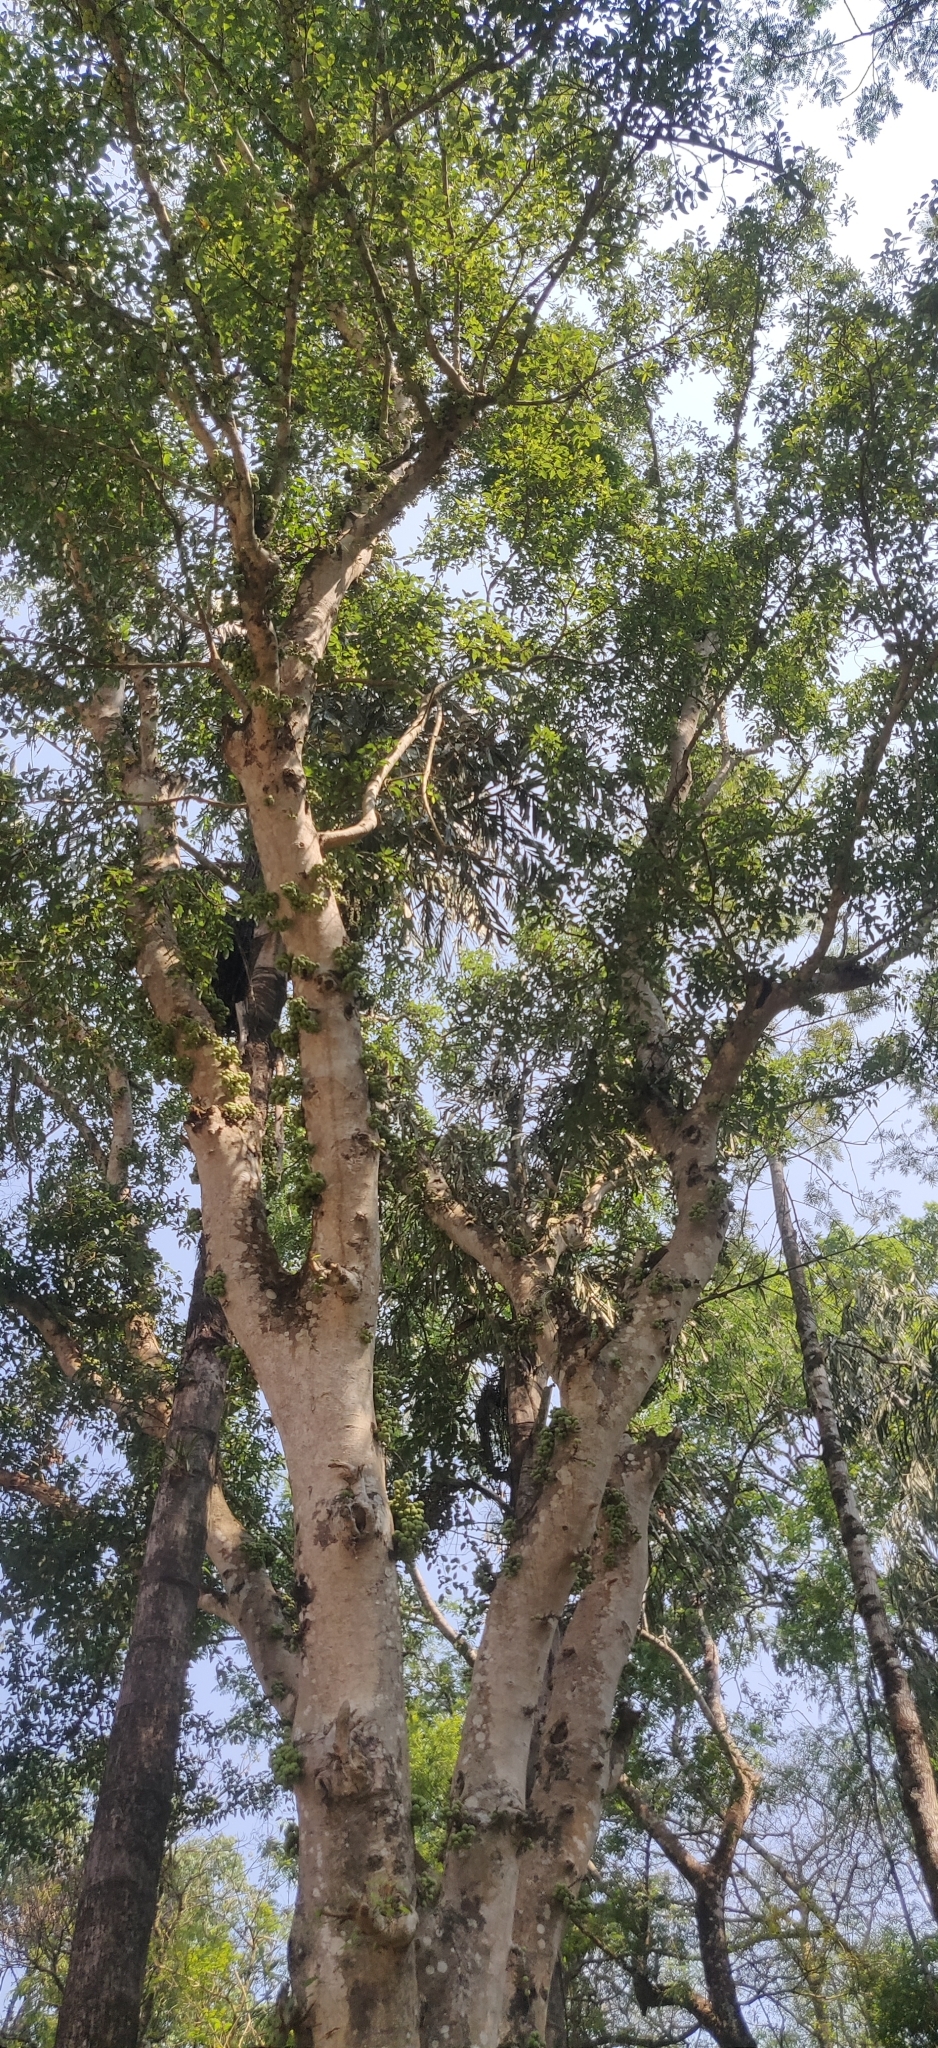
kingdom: Plantae
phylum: Tracheophyta
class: Magnoliopsida
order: Rosales
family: Moraceae
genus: Ficus
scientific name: Ficus racemosa
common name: Cluster fig
